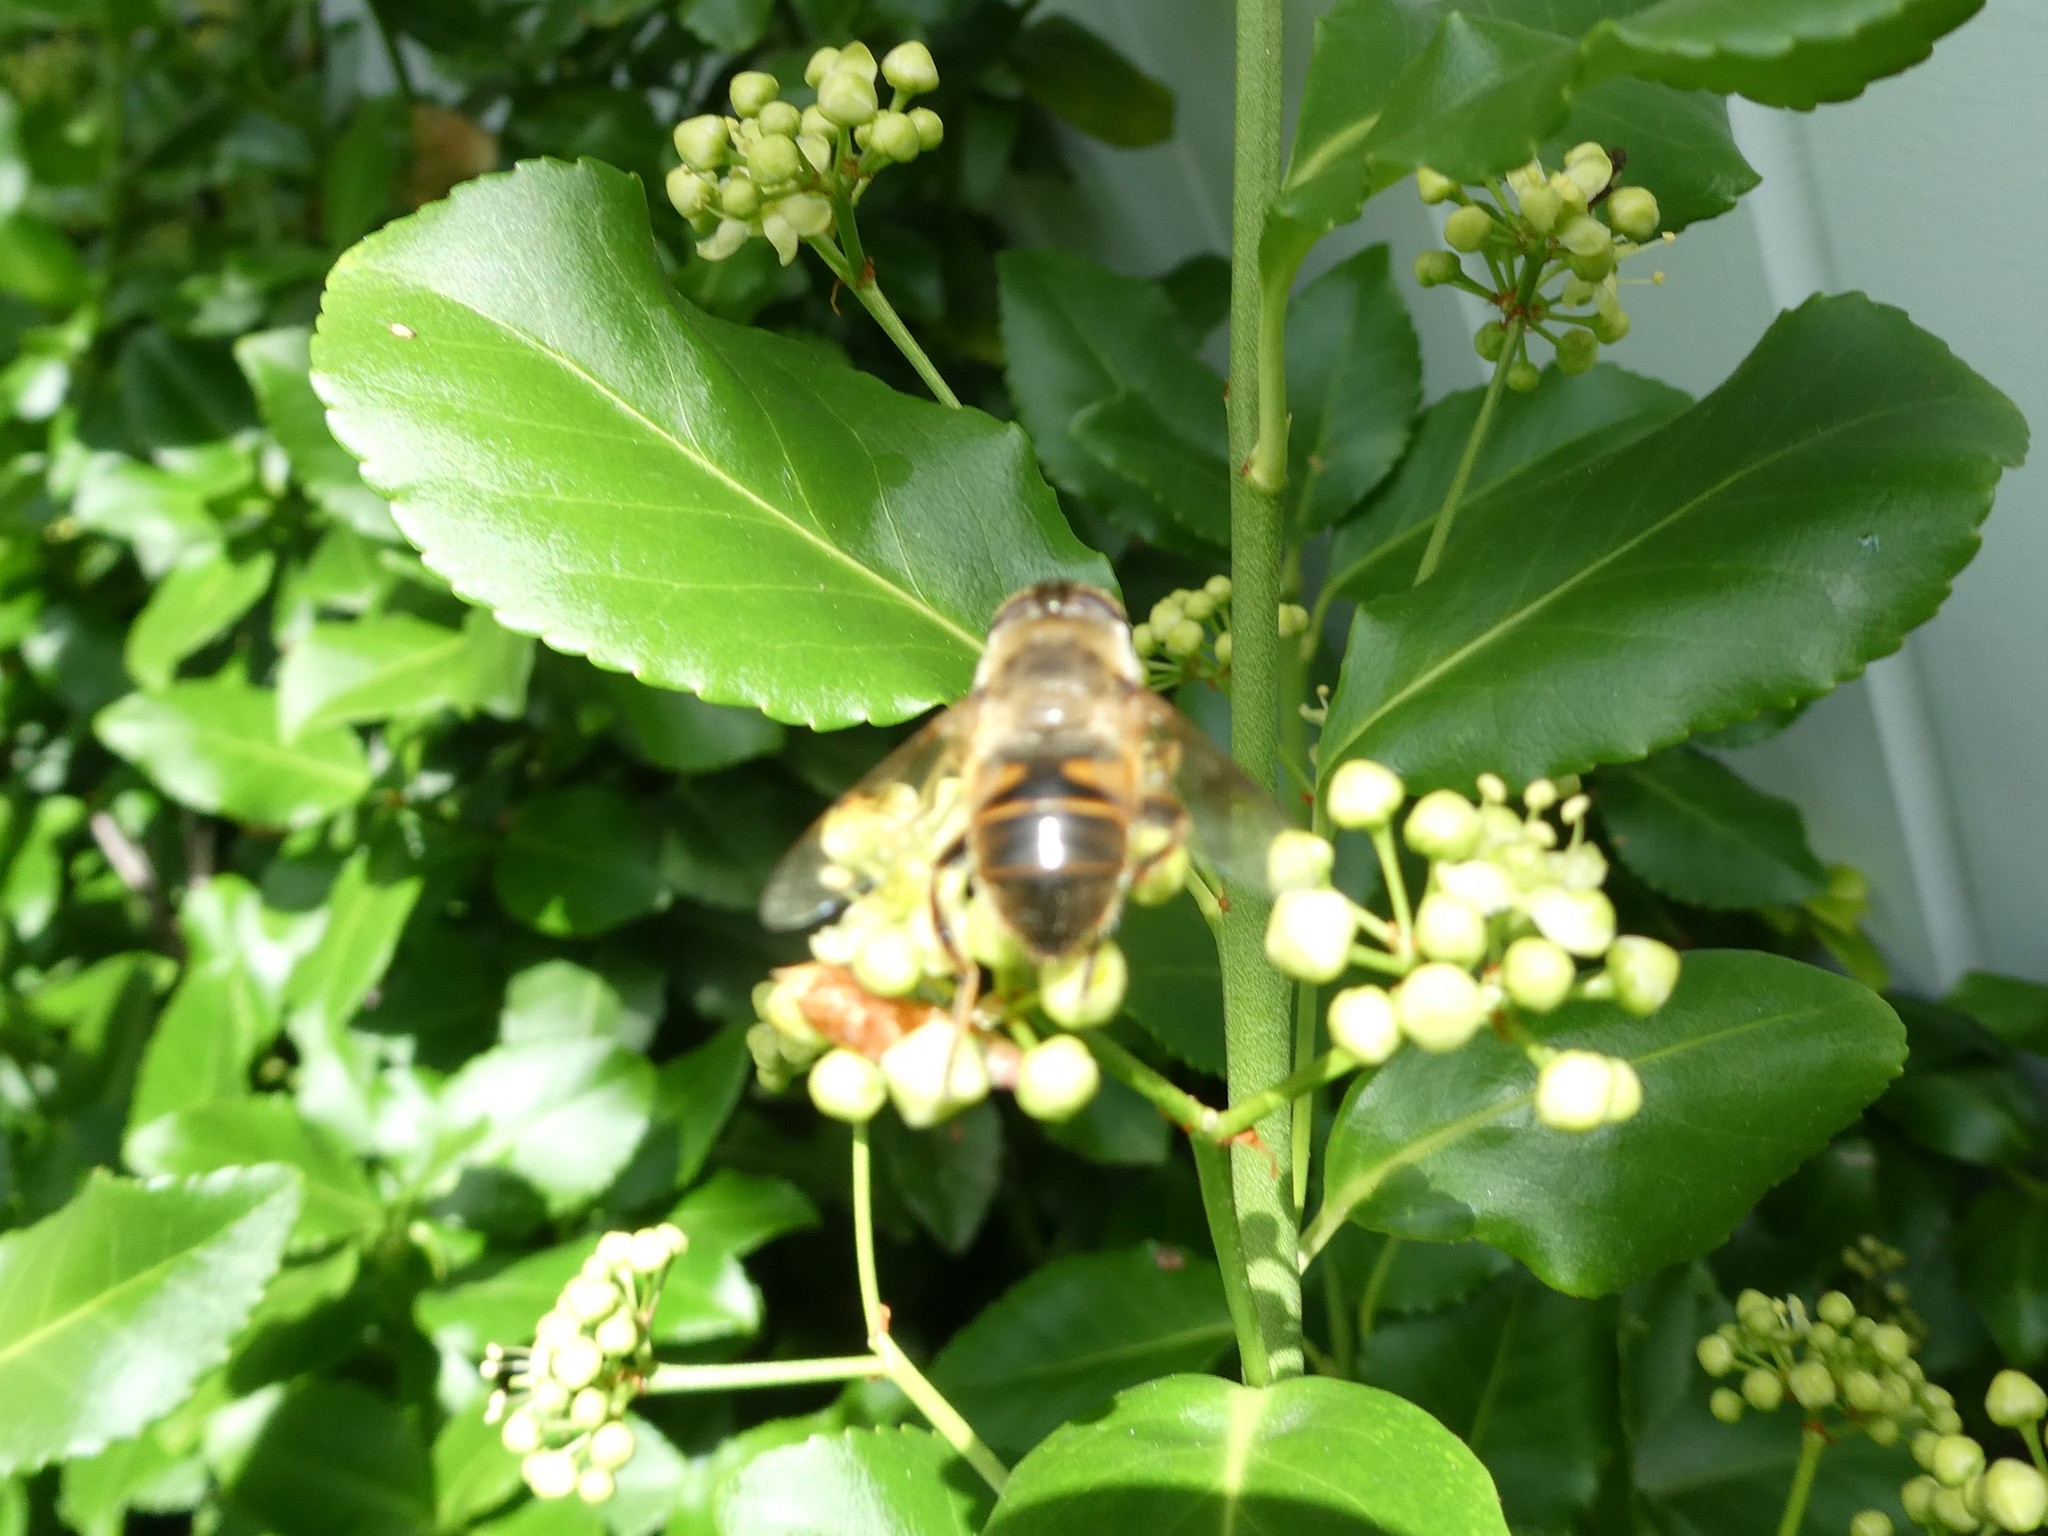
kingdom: Animalia
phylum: Arthropoda
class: Insecta
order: Diptera
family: Syrphidae
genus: Eristalis
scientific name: Eristalis tenax
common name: Drone fly
